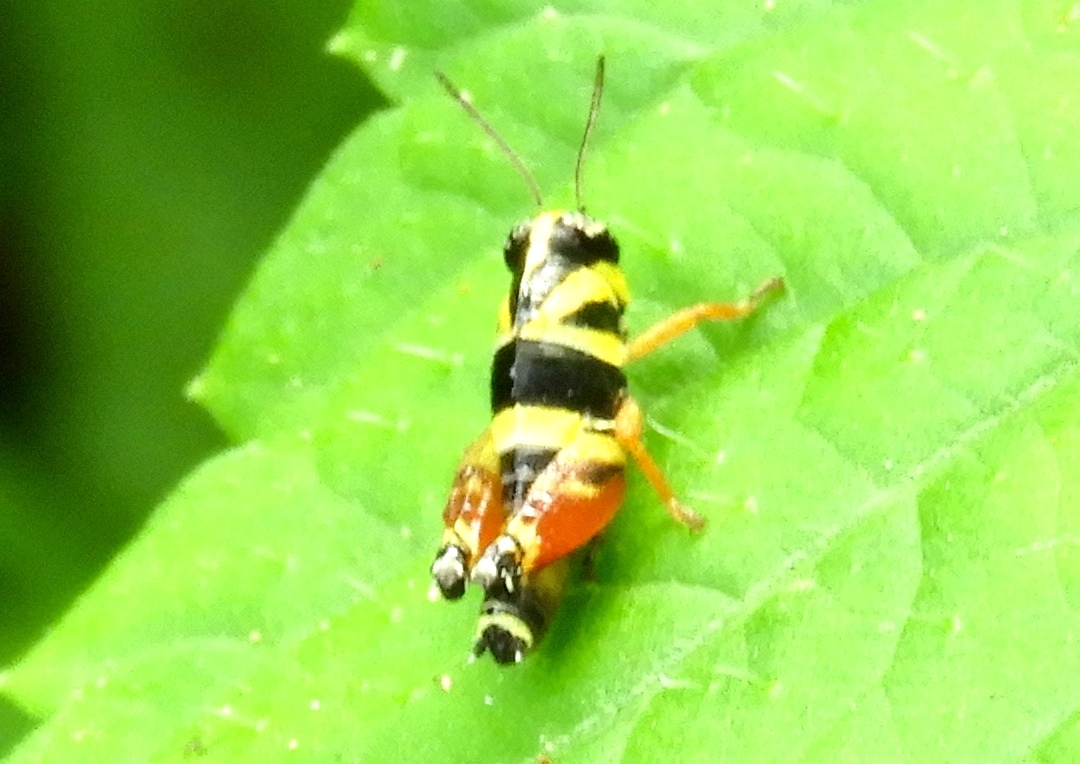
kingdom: Animalia
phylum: Arthropoda
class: Insecta
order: Orthoptera
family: Acrididae
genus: Aidemona
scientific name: Aidemona azteca
